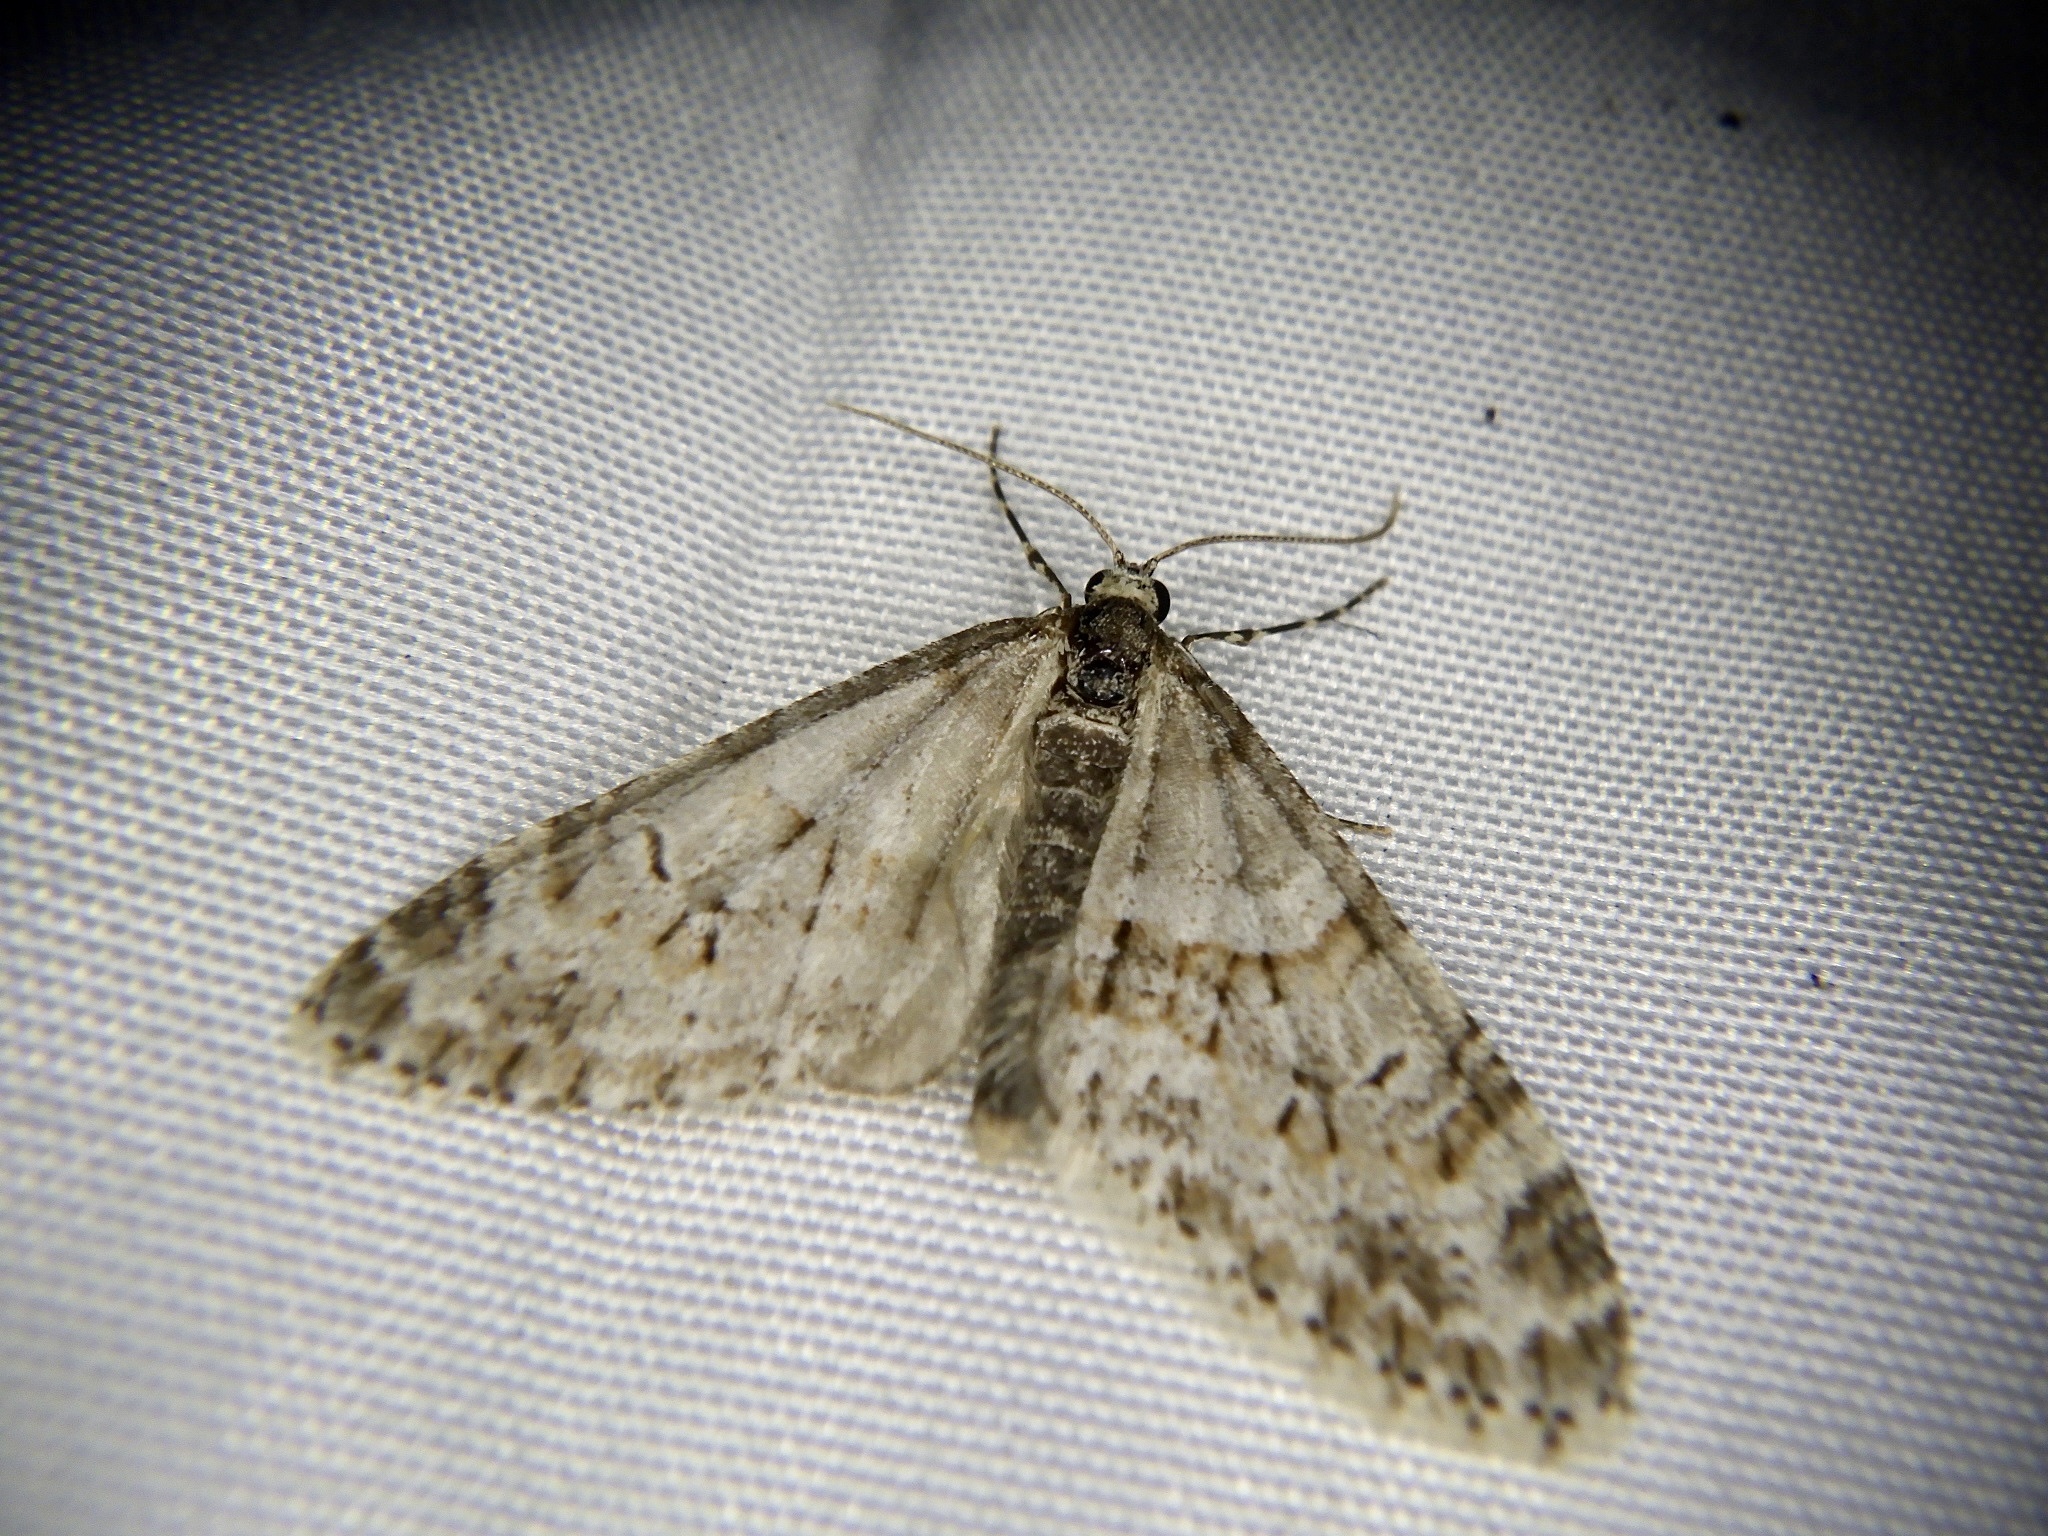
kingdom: Animalia
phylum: Arthropoda
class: Insecta
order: Lepidoptera
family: Geometridae
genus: Trichopteryx
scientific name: Trichopteryx fastuosa
